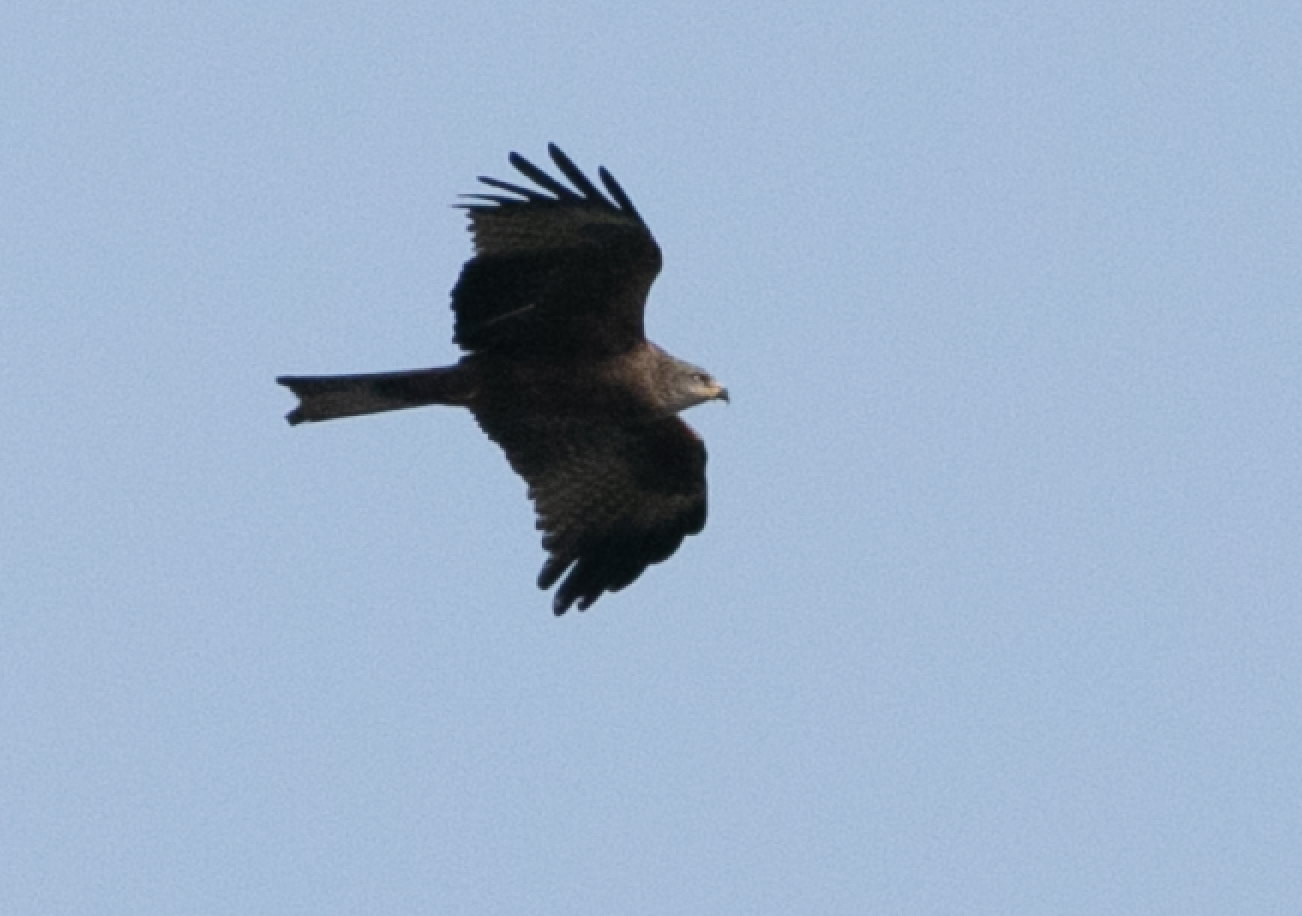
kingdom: Animalia
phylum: Chordata
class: Aves
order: Accipitriformes
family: Accipitridae
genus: Milvus
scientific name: Milvus migrans
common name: Black kite
